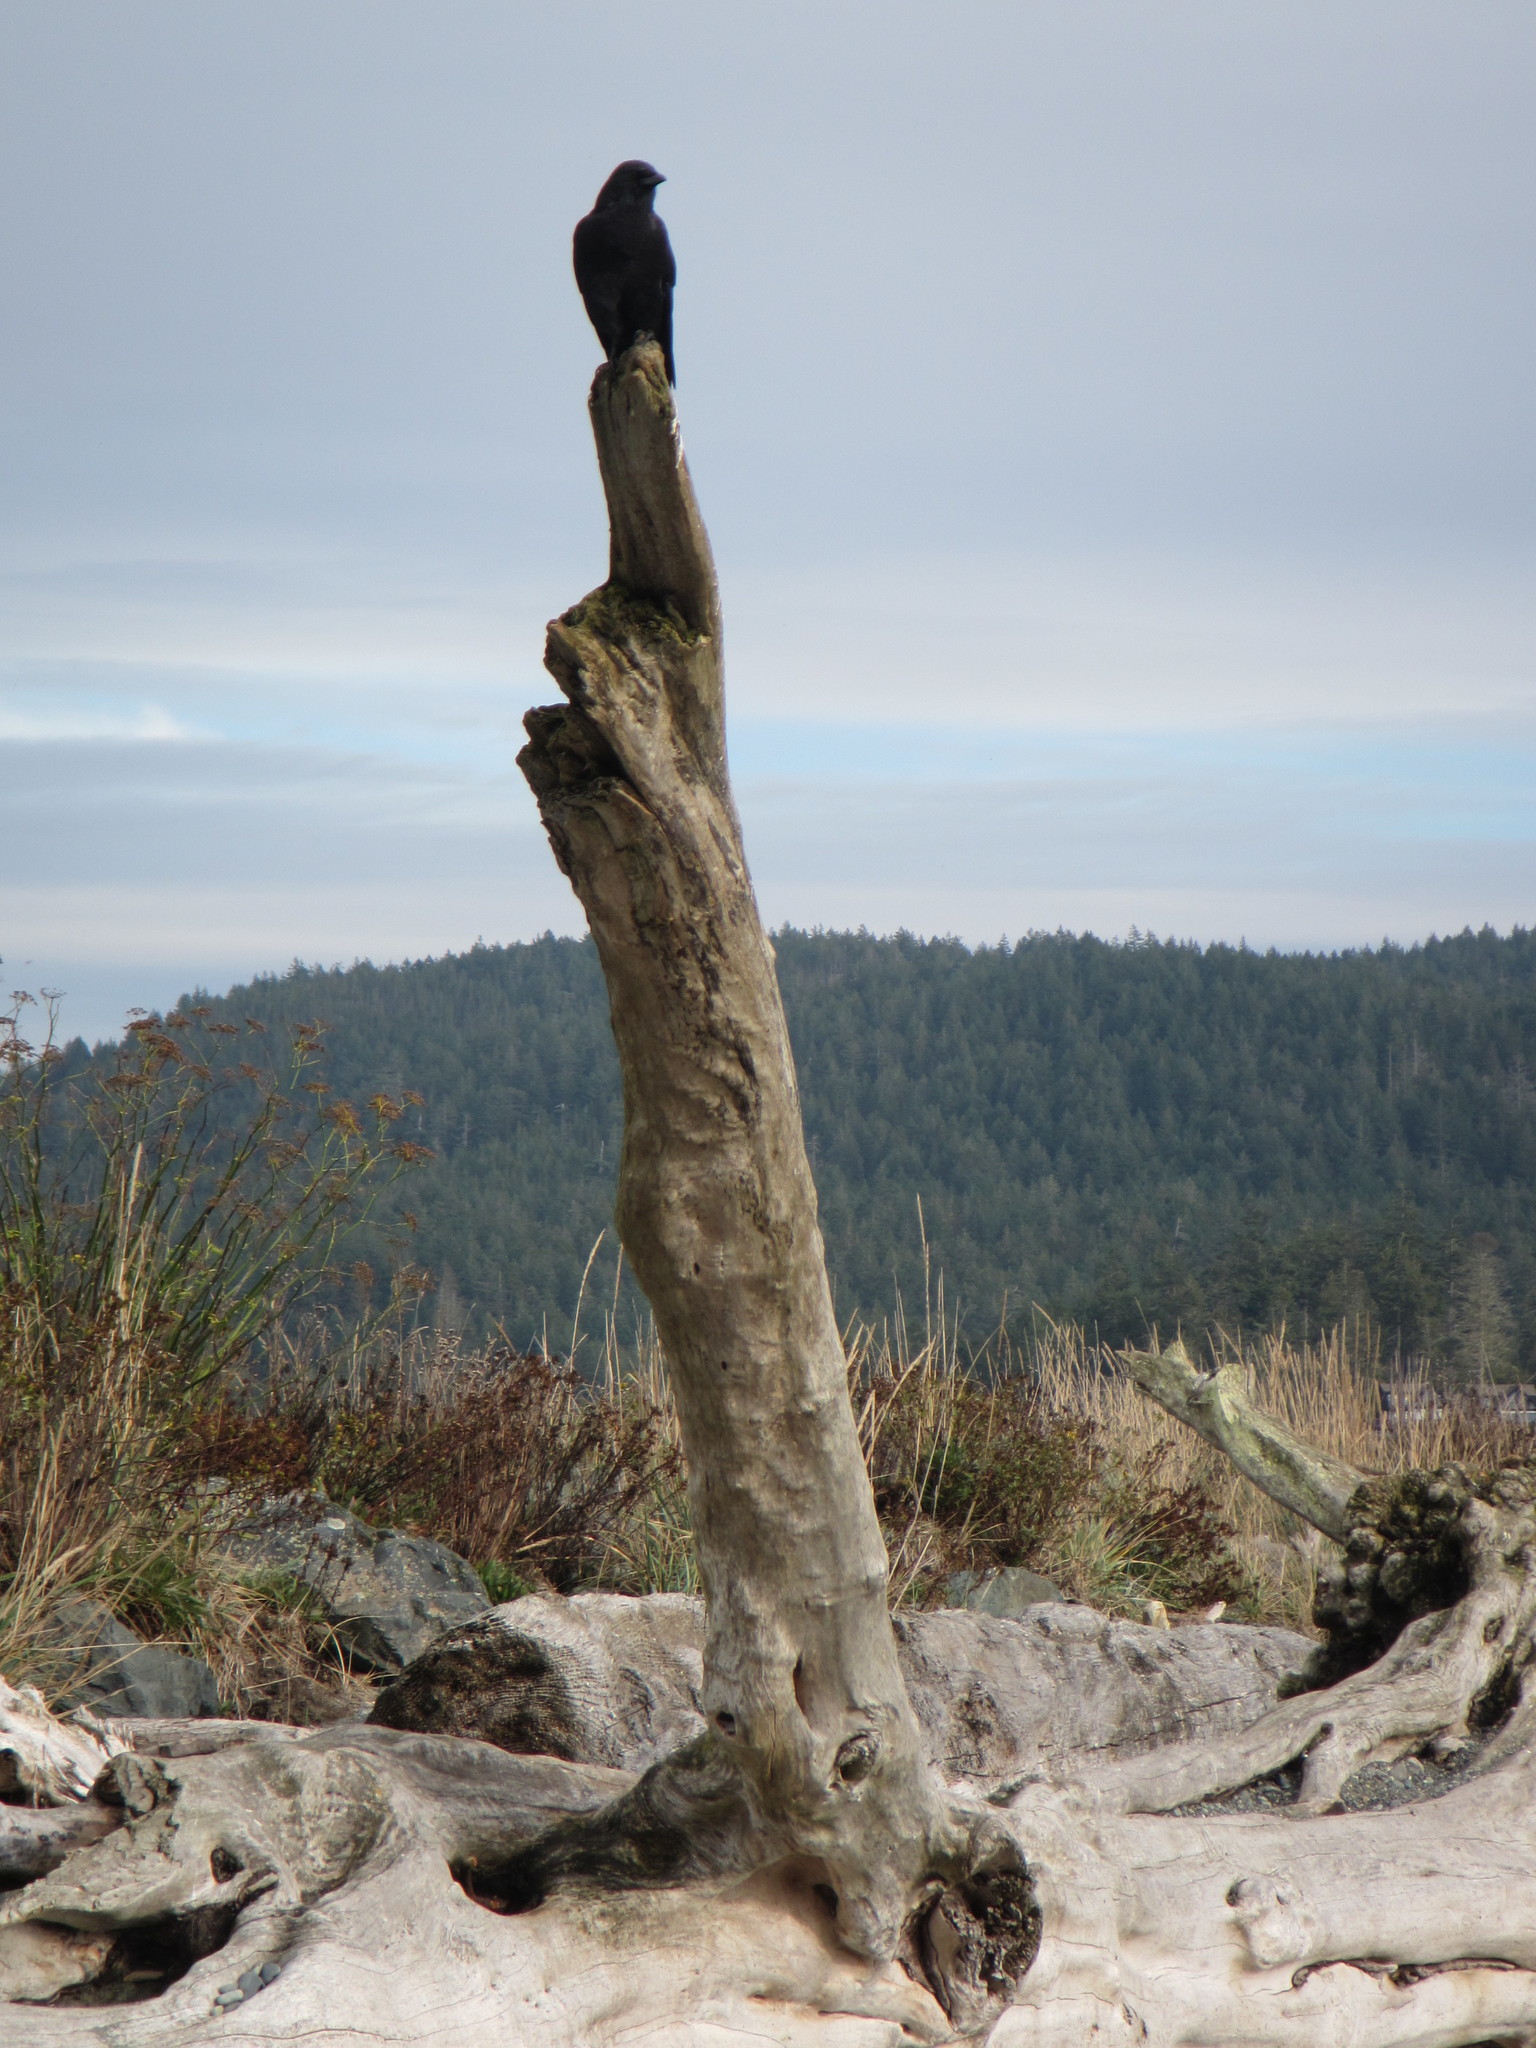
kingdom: Animalia
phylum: Chordata
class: Aves
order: Passeriformes
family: Corvidae
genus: Corvus
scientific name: Corvus brachyrhynchos
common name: American crow
